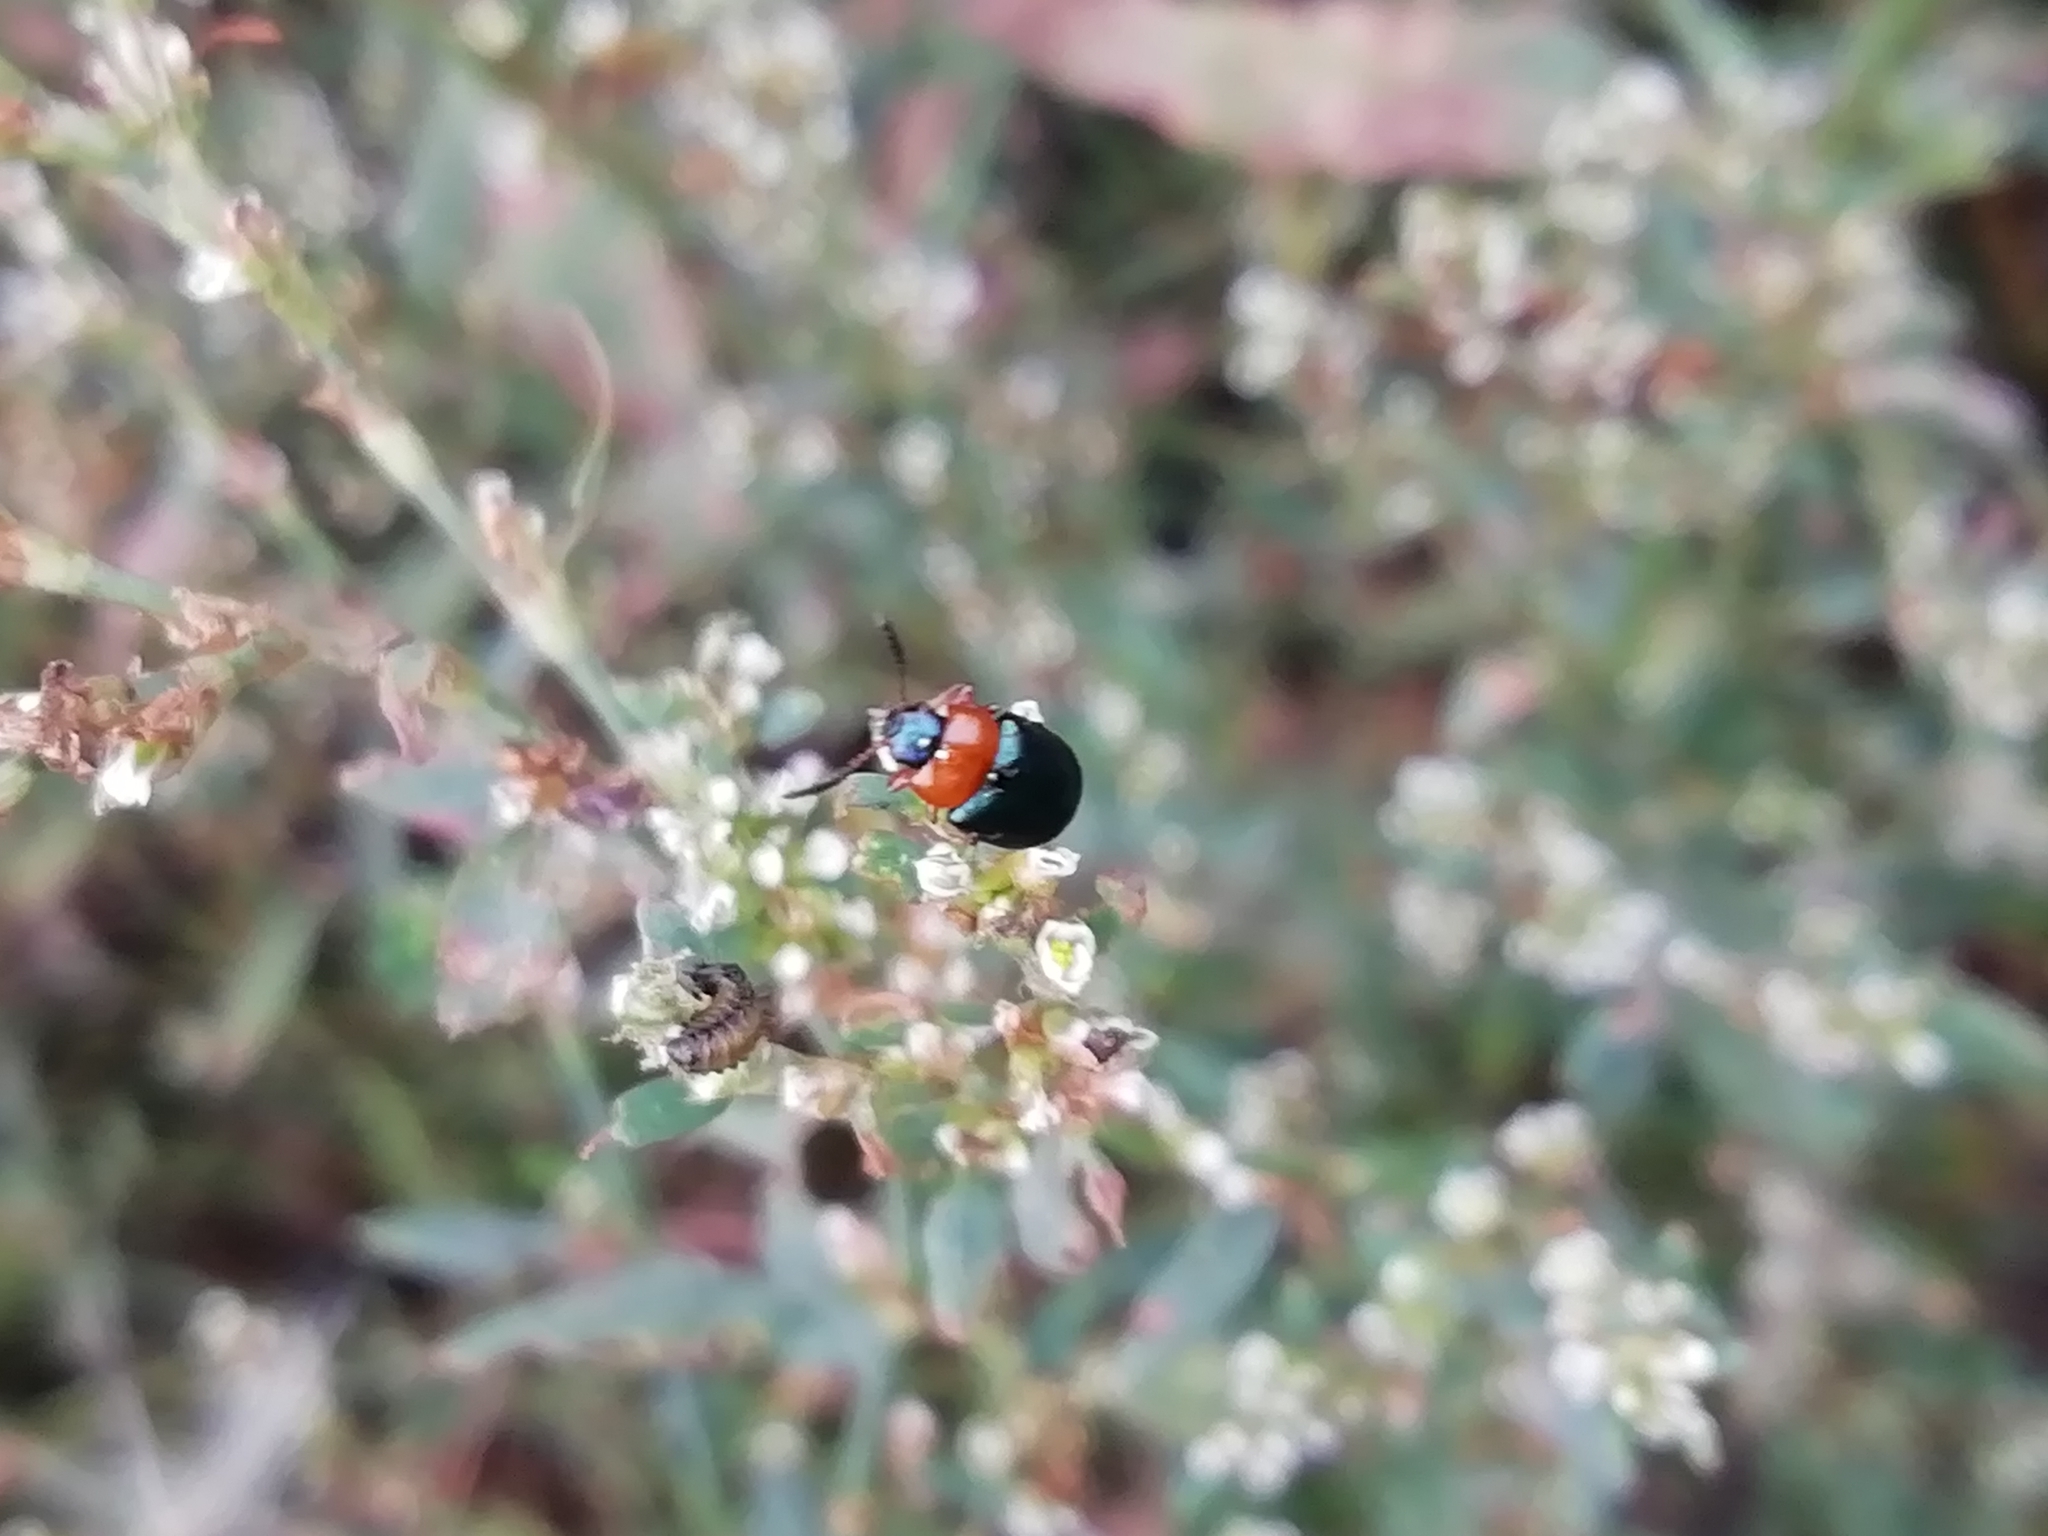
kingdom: Animalia
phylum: Arthropoda
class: Insecta
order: Coleoptera
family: Chrysomelidae
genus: Gastrophysa
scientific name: Gastrophysa polygoni
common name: Knotweed leaf beetle
